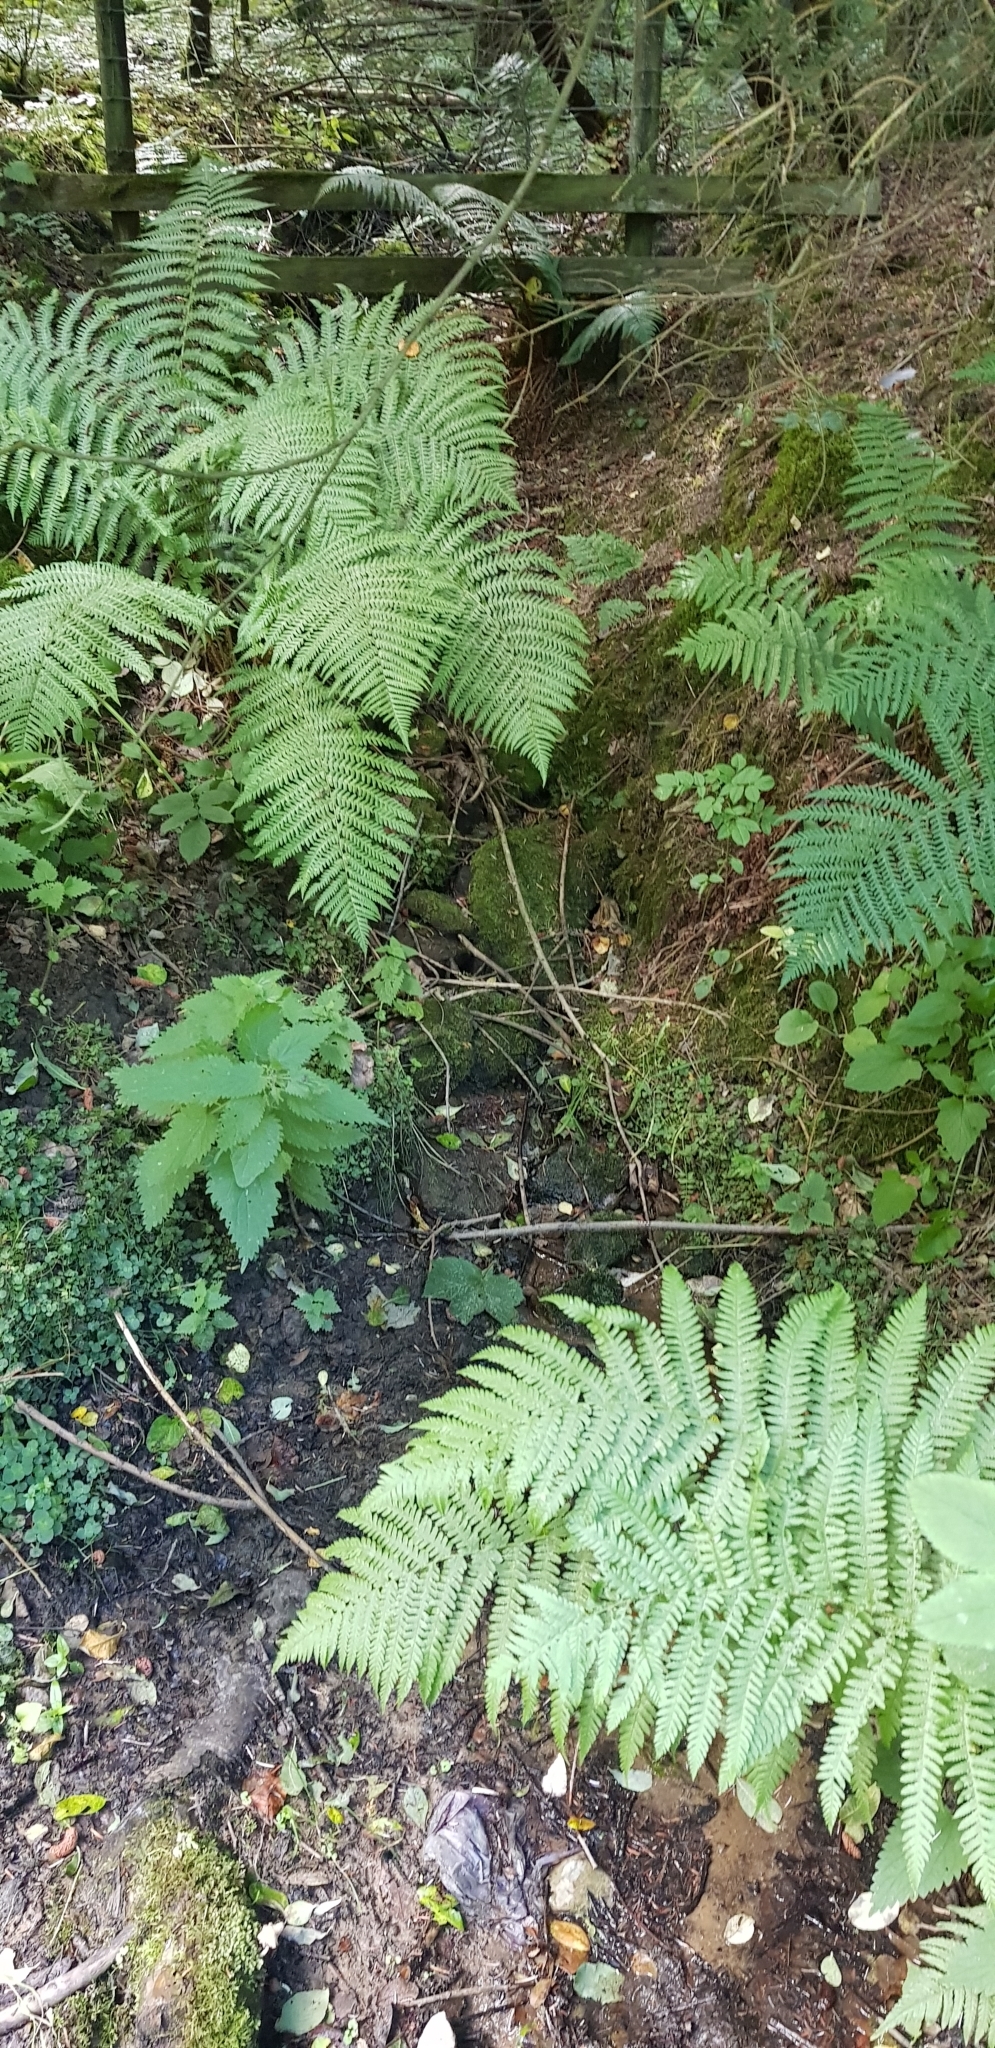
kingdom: Plantae
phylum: Bryophyta
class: Bryopsida
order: Hypnales
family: Brachytheciaceae
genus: Oxyrrhynchium
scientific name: Oxyrrhynchium hians
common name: Spreading beaked moss
